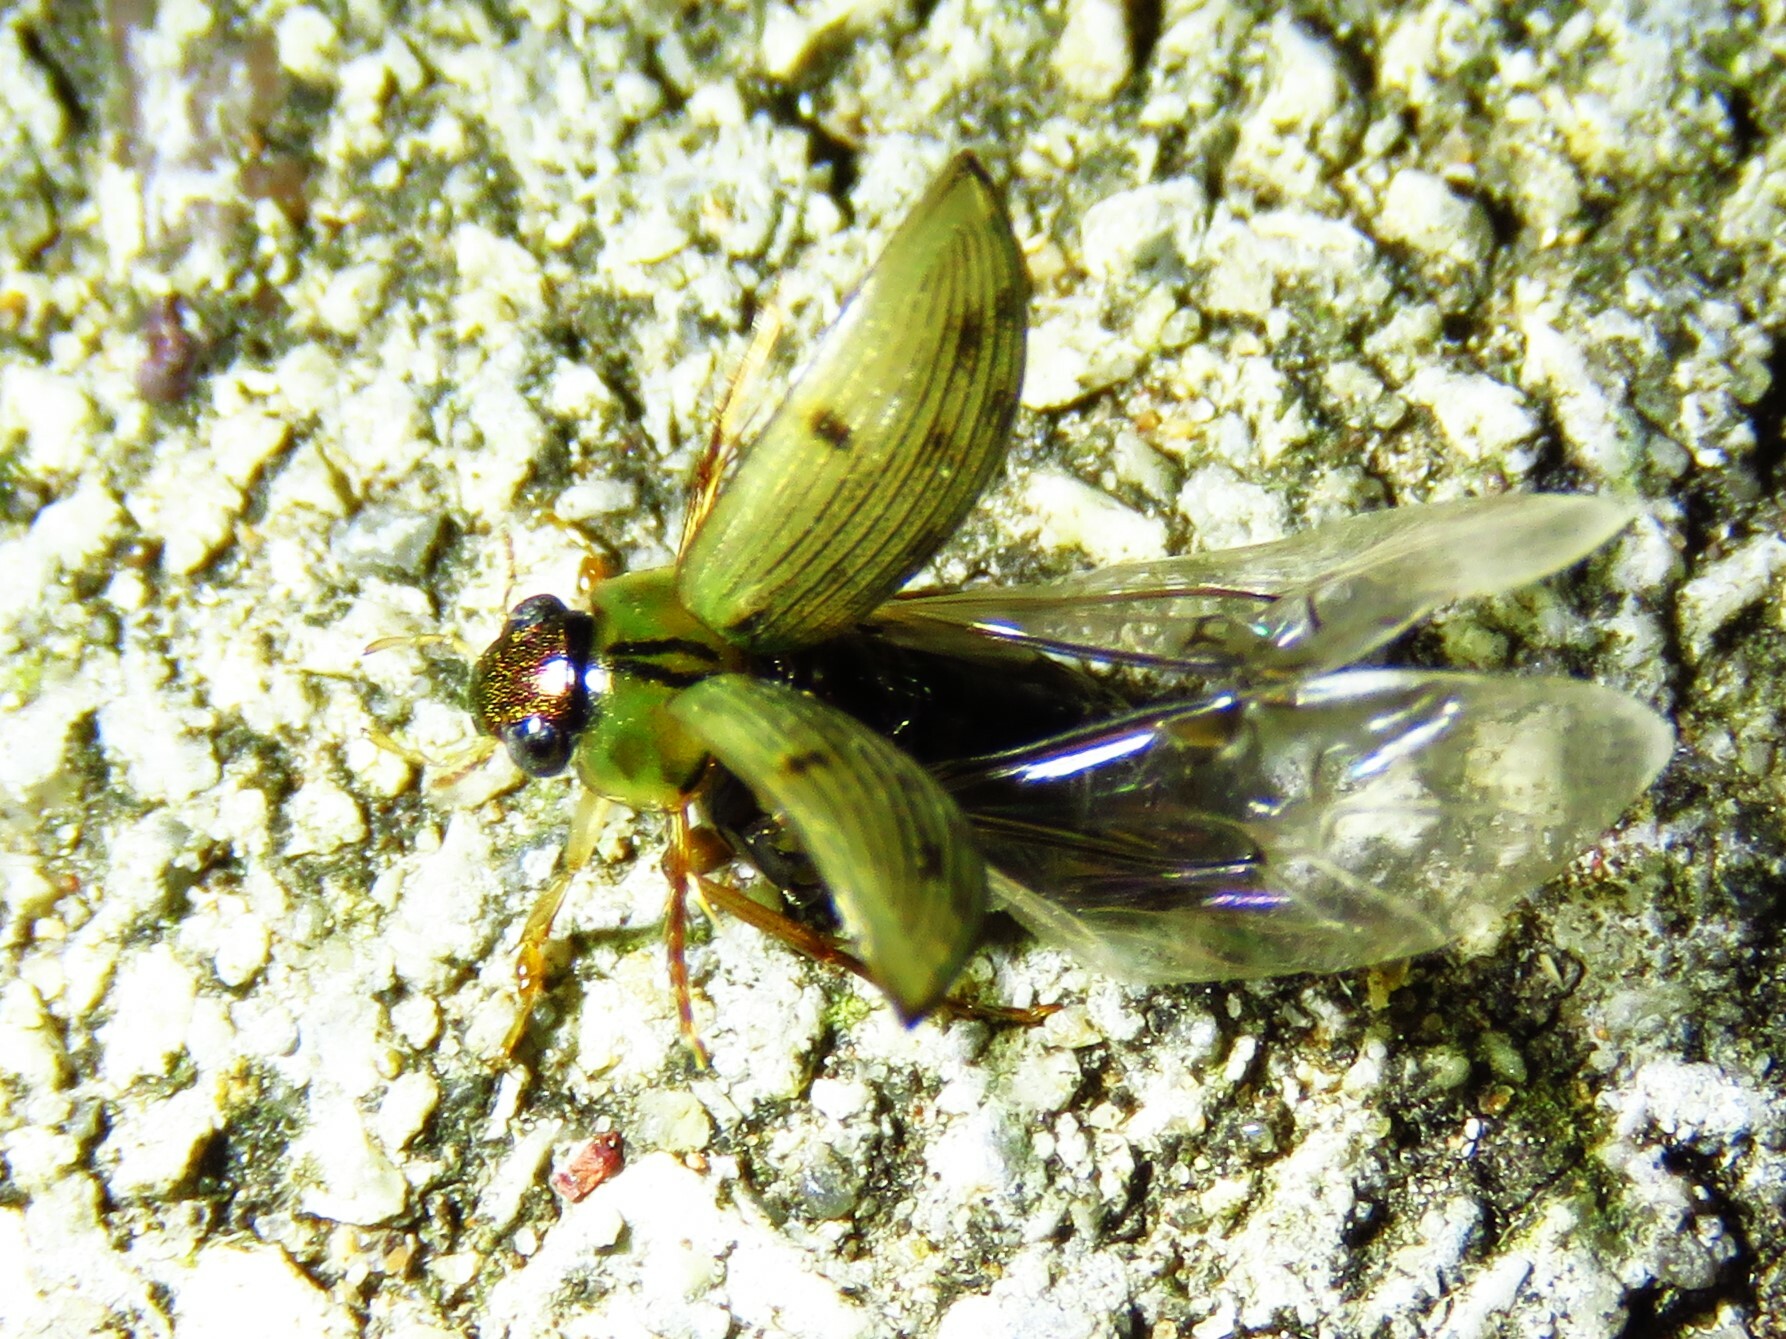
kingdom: Animalia
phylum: Arthropoda
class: Insecta
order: Coleoptera
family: Hydrophilidae
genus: Berosus
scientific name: Berosus
